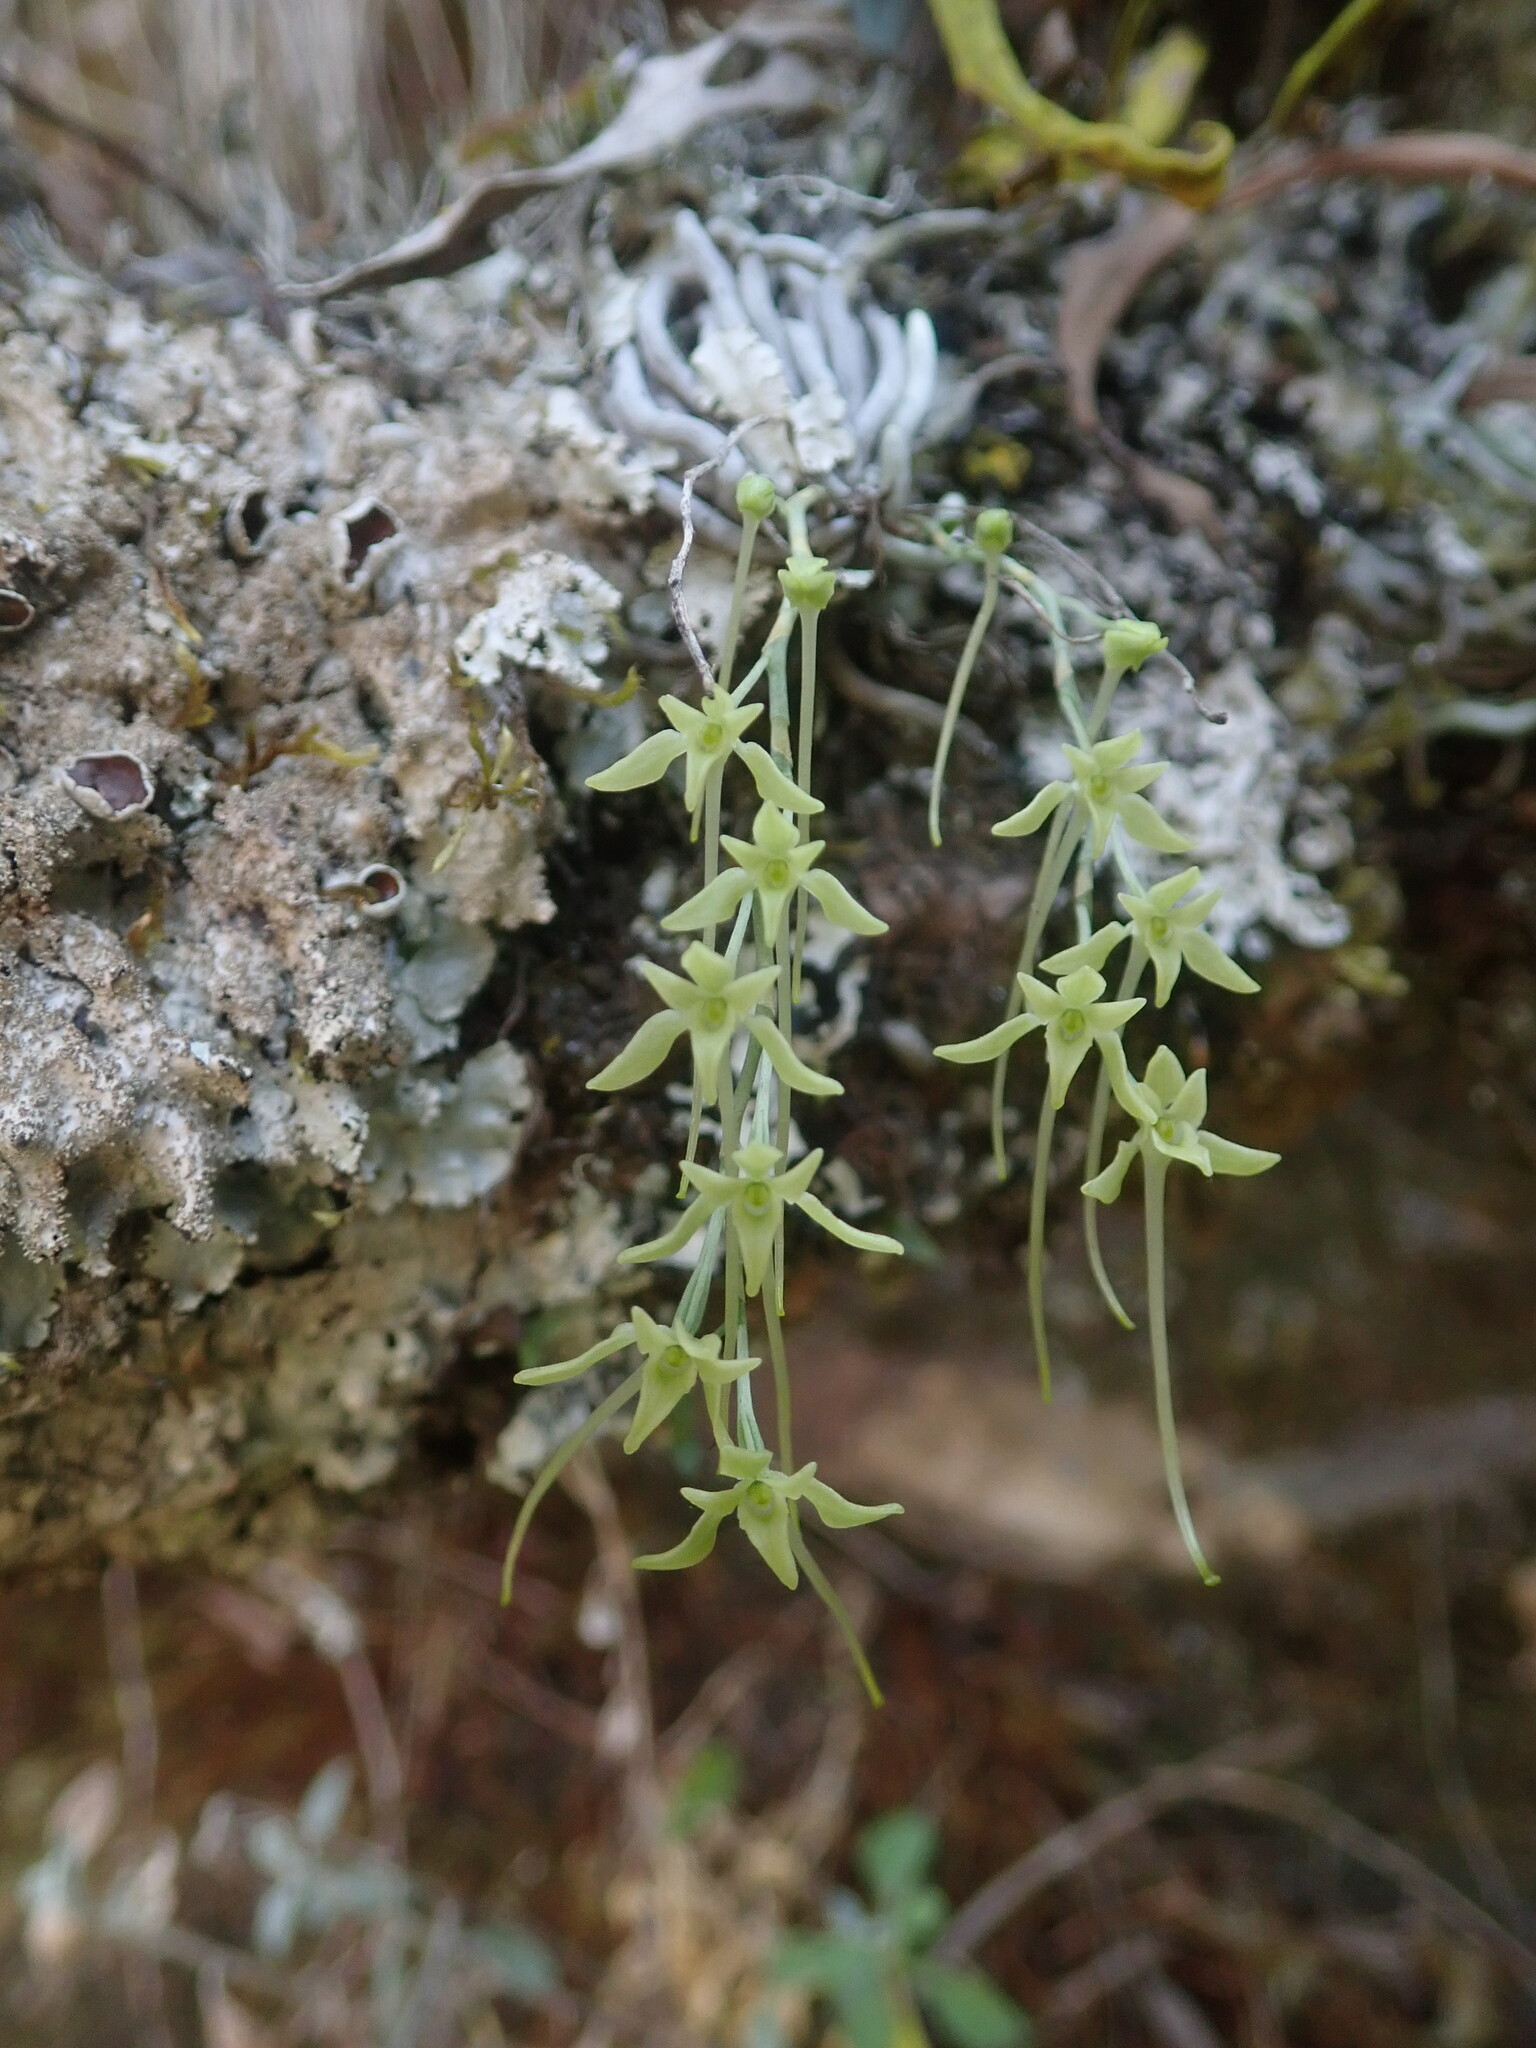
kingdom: Plantae
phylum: Tracheophyta
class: Liliopsida
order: Asparagales
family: Orchidaceae
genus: Mystacidium
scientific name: Mystacidium gracile
